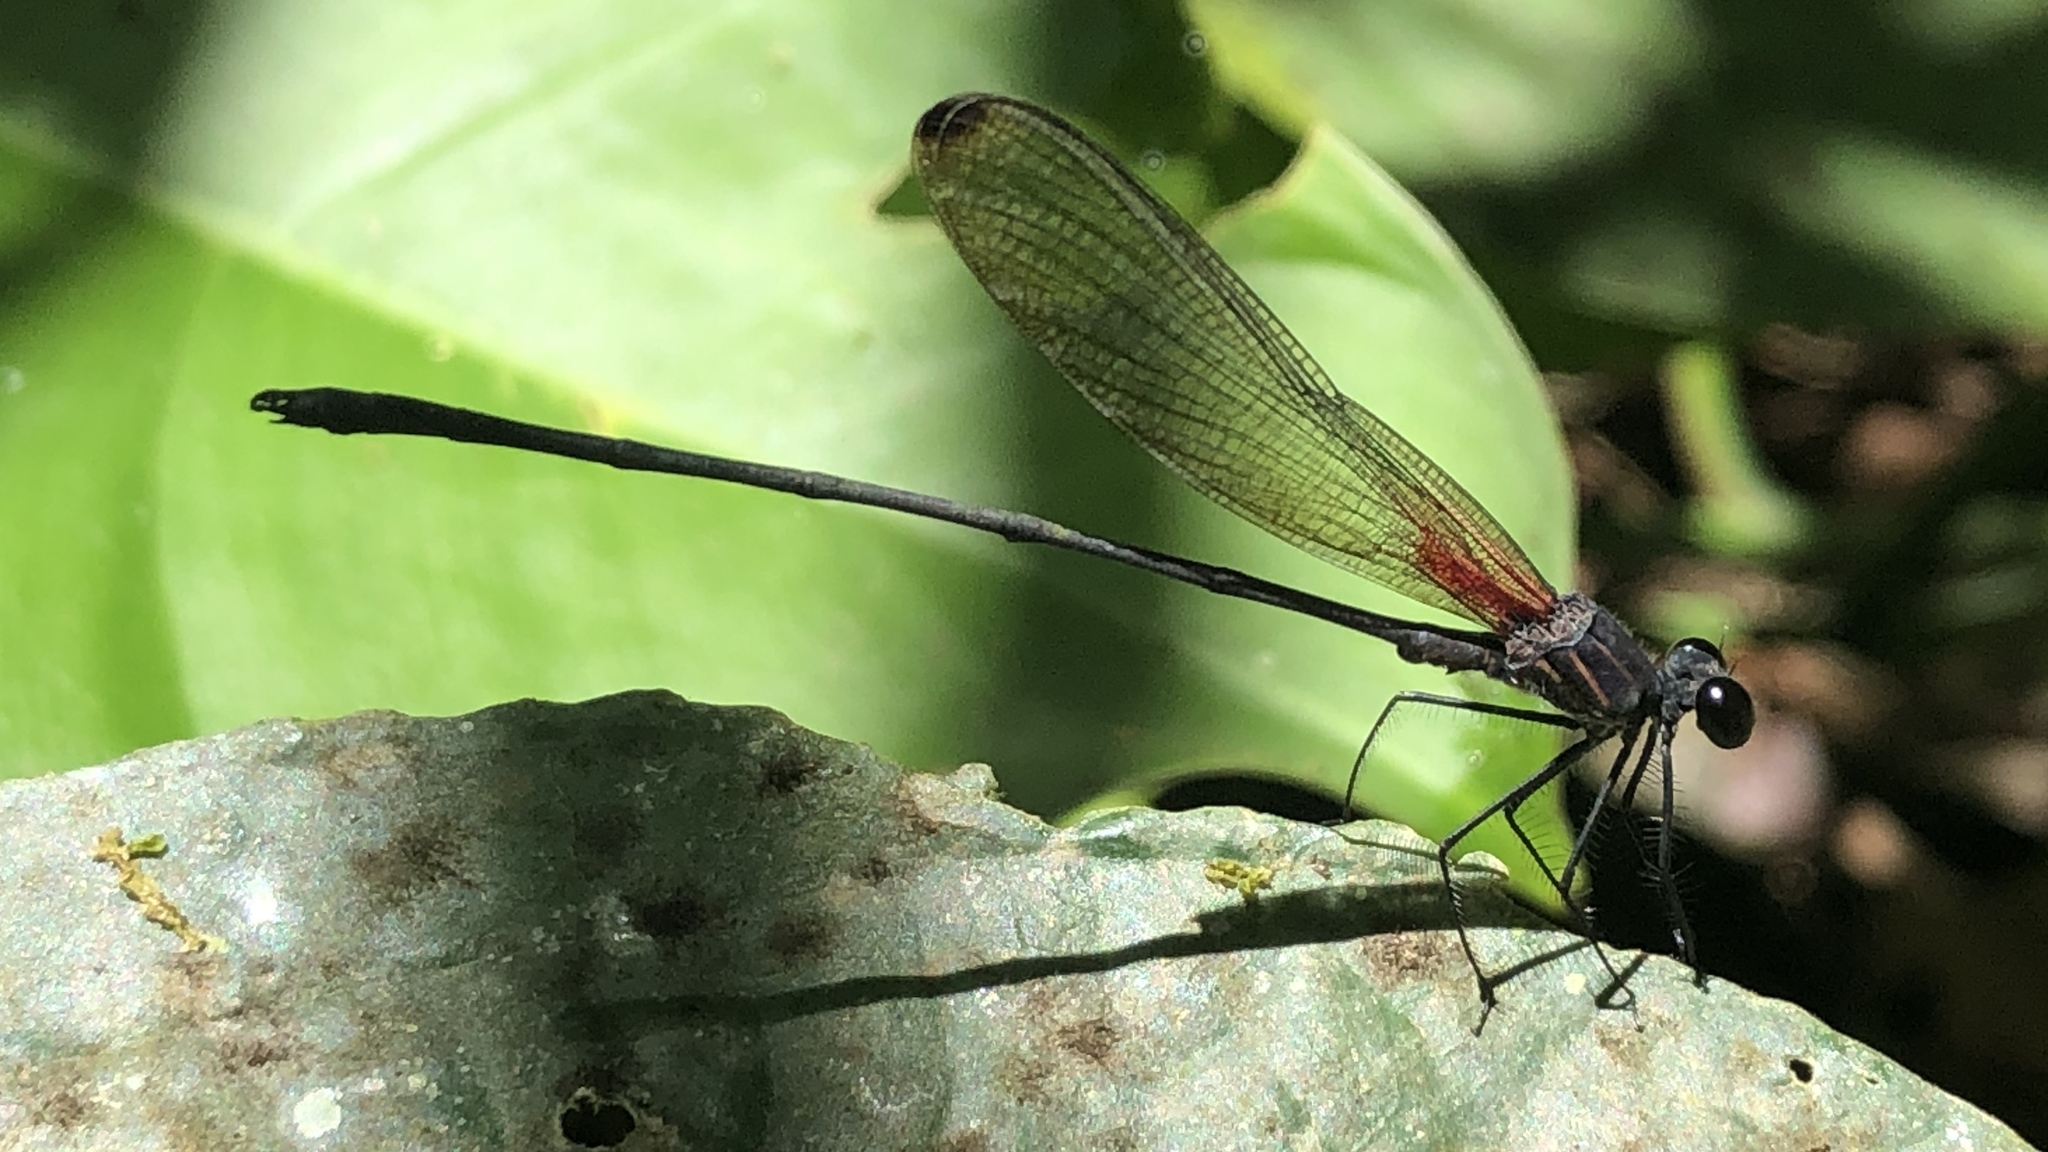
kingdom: Animalia
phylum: Arthropoda
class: Insecta
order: Odonata
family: Calopterygidae
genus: Hetaerina
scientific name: Hetaerina fuscoguttata
